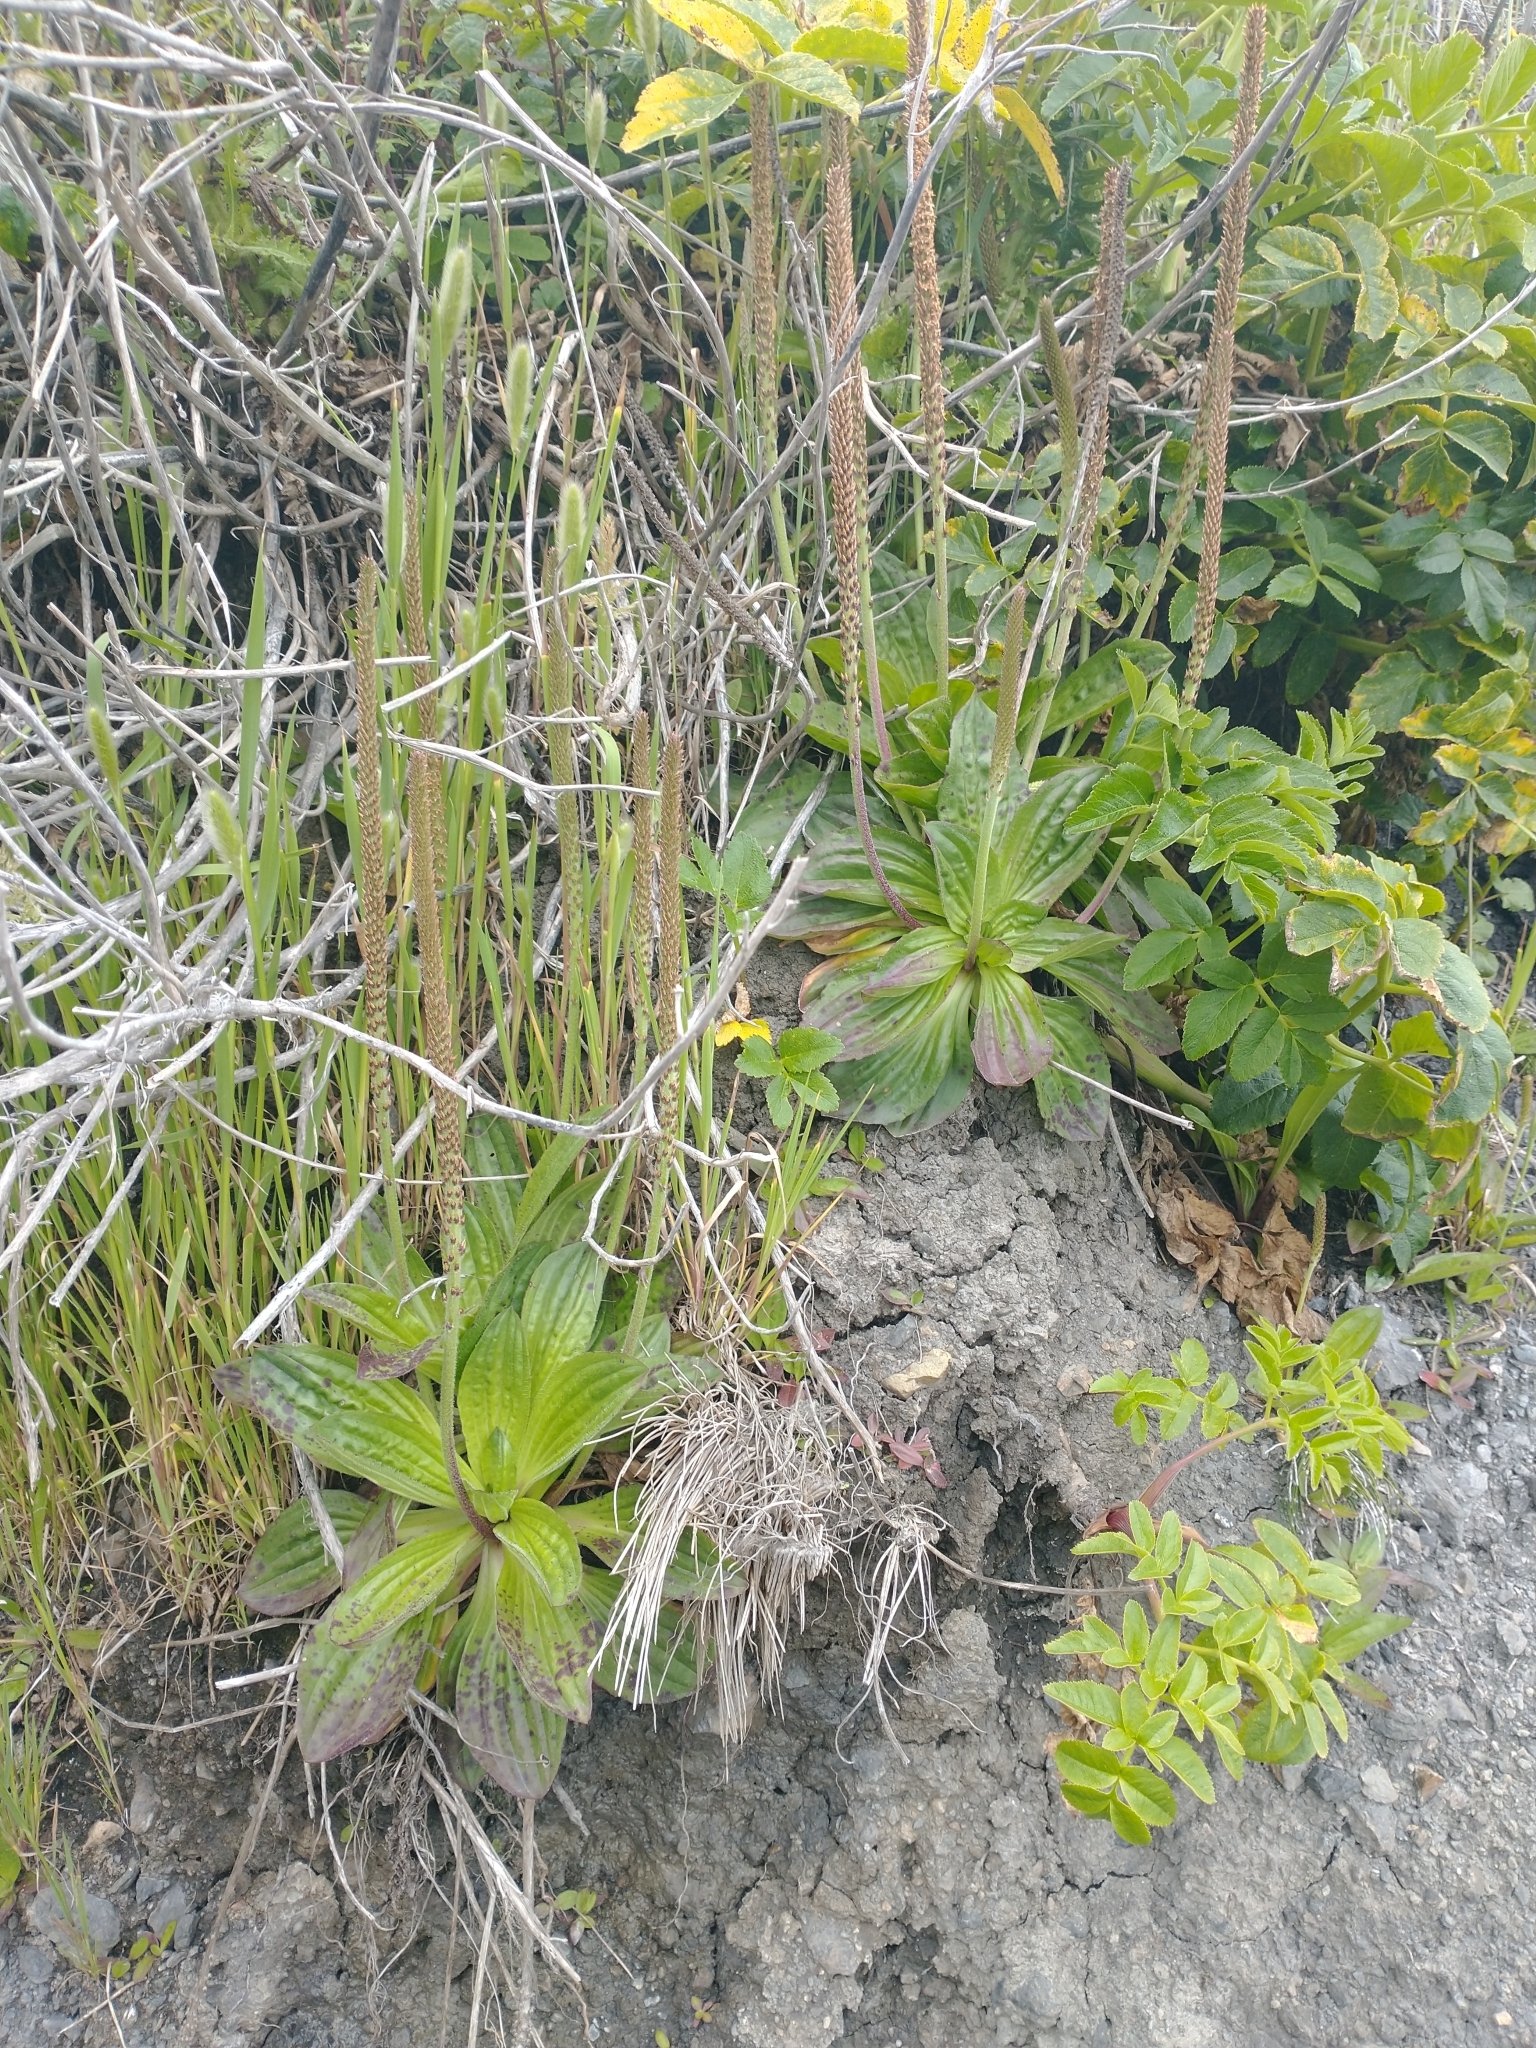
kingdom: Plantae
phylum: Tracheophyta
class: Magnoliopsida
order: Lamiales
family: Plantaginaceae
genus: Plantago
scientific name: Plantago subnuda
